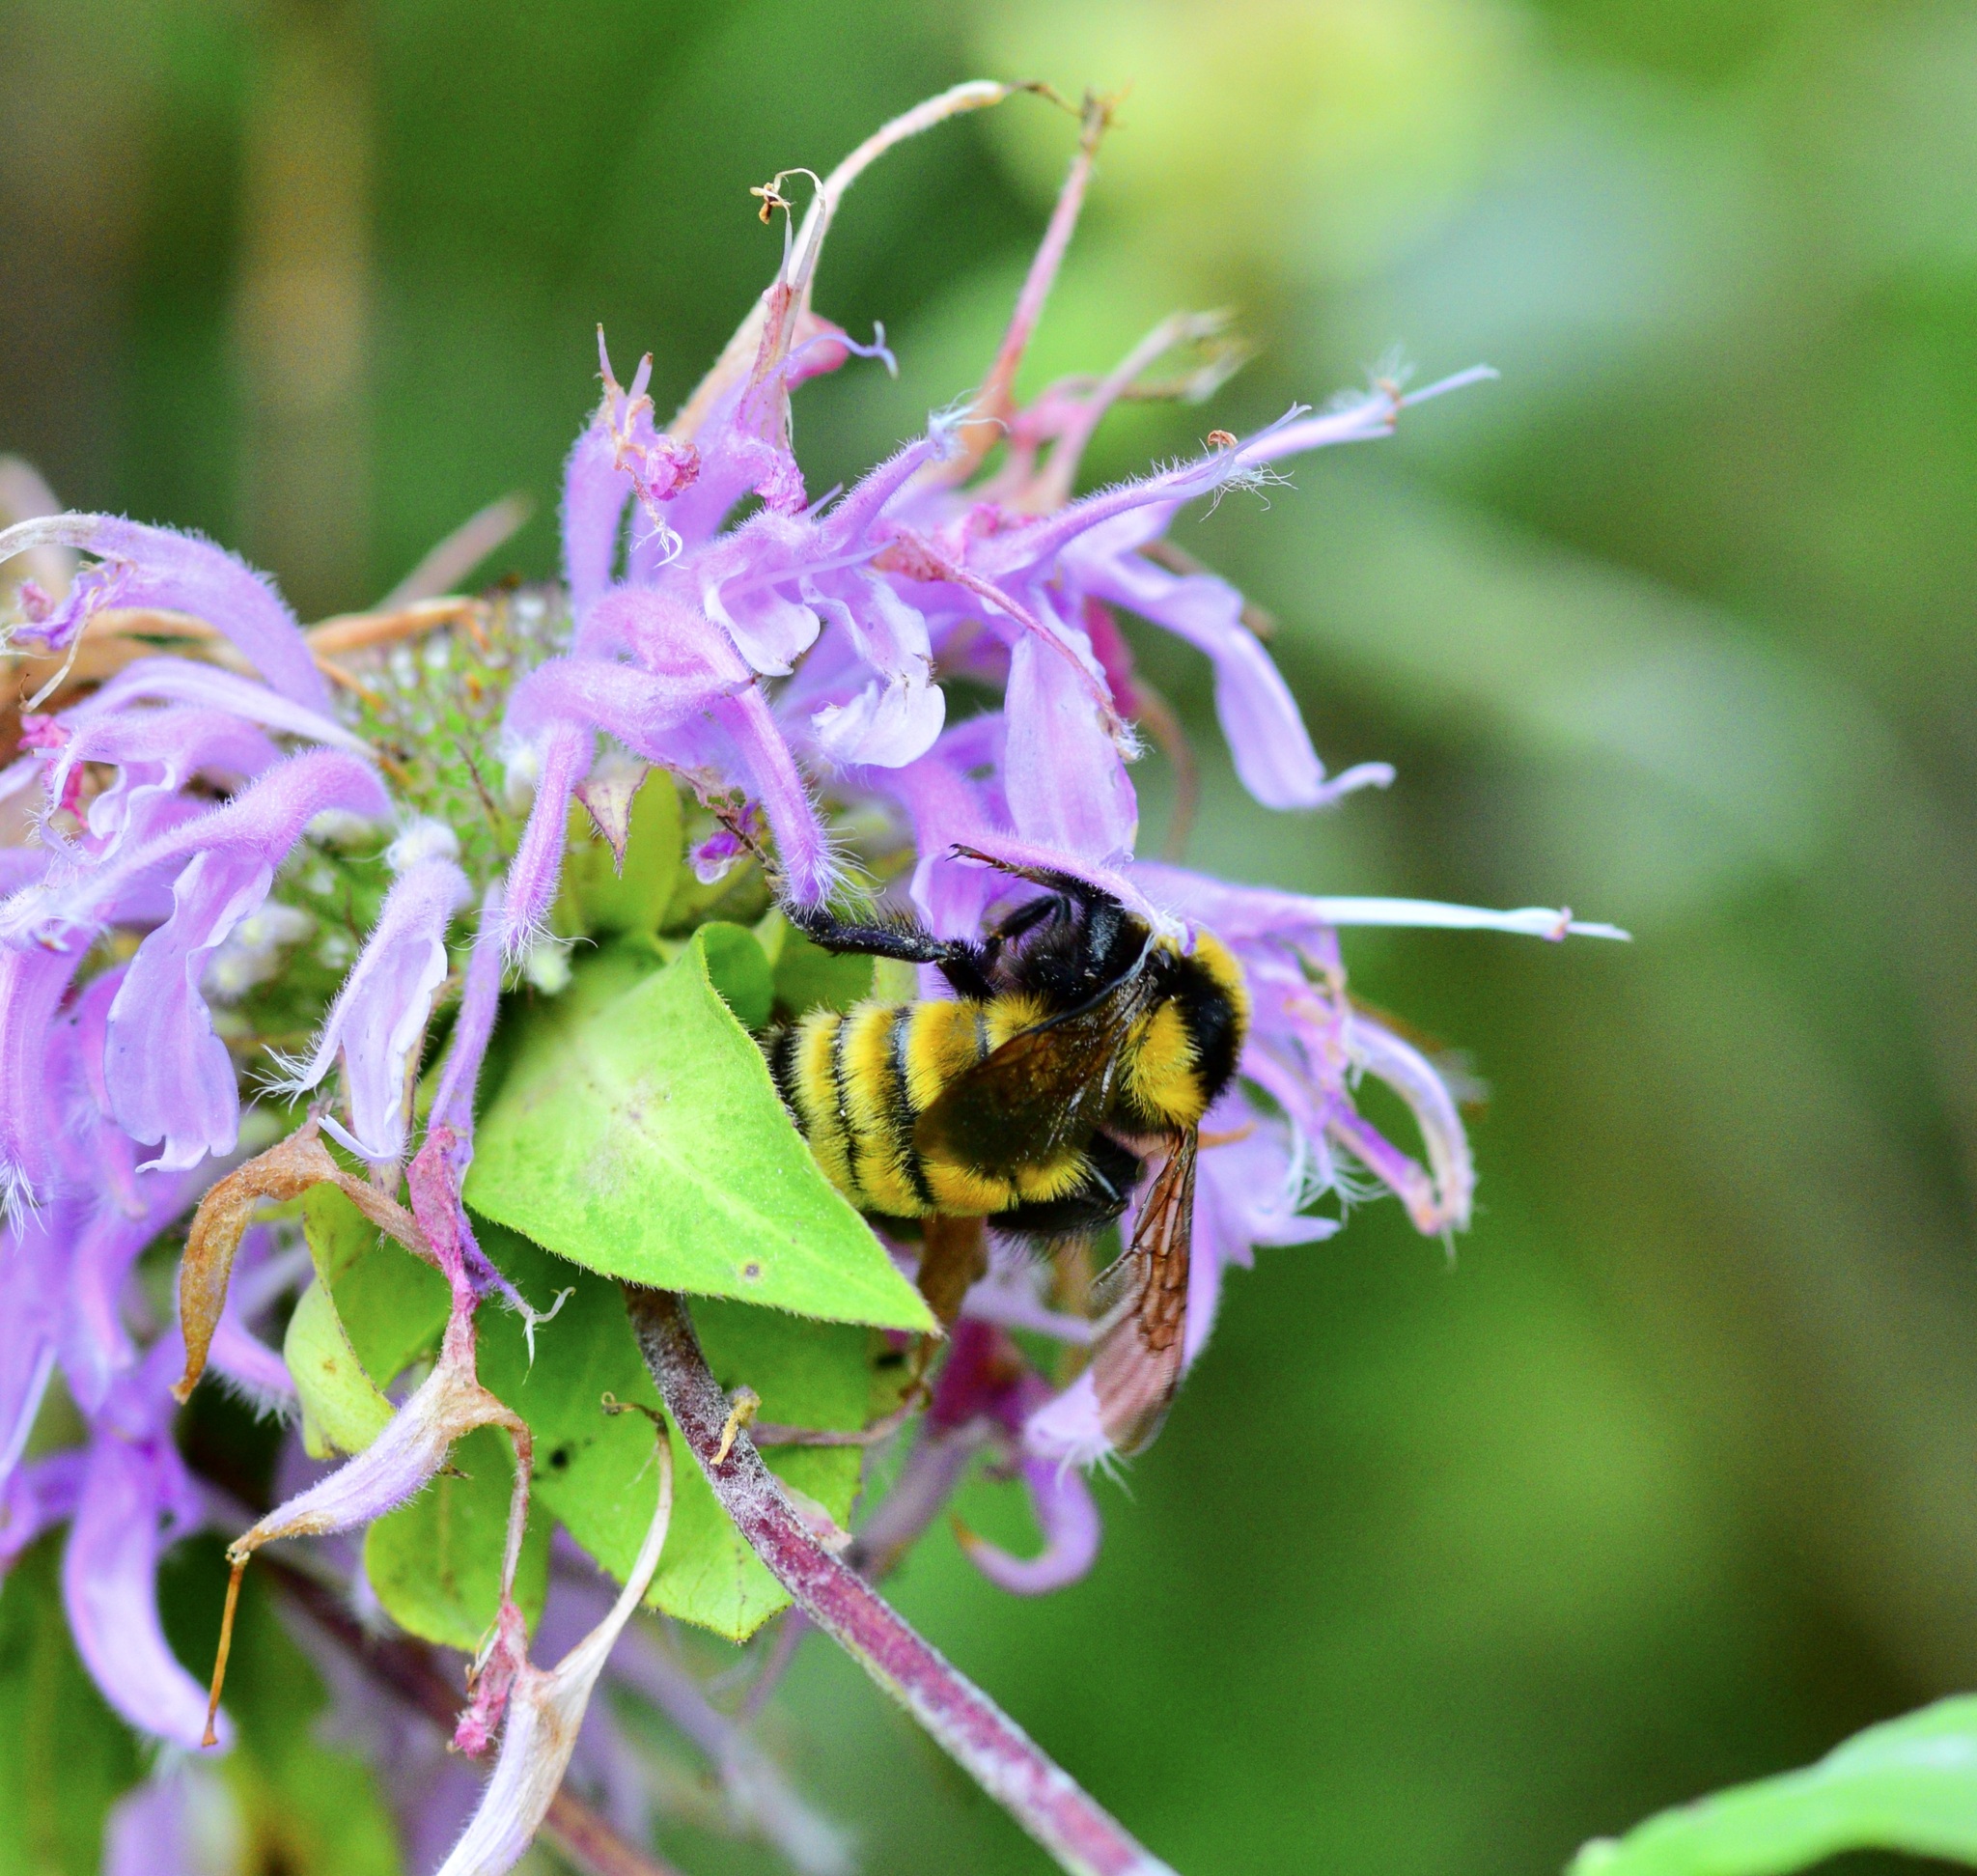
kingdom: Animalia
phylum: Arthropoda
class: Insecta
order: Hymenoptera
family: Apidae
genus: Bombus
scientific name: Bombus borealis
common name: Northern amber bumble bee
